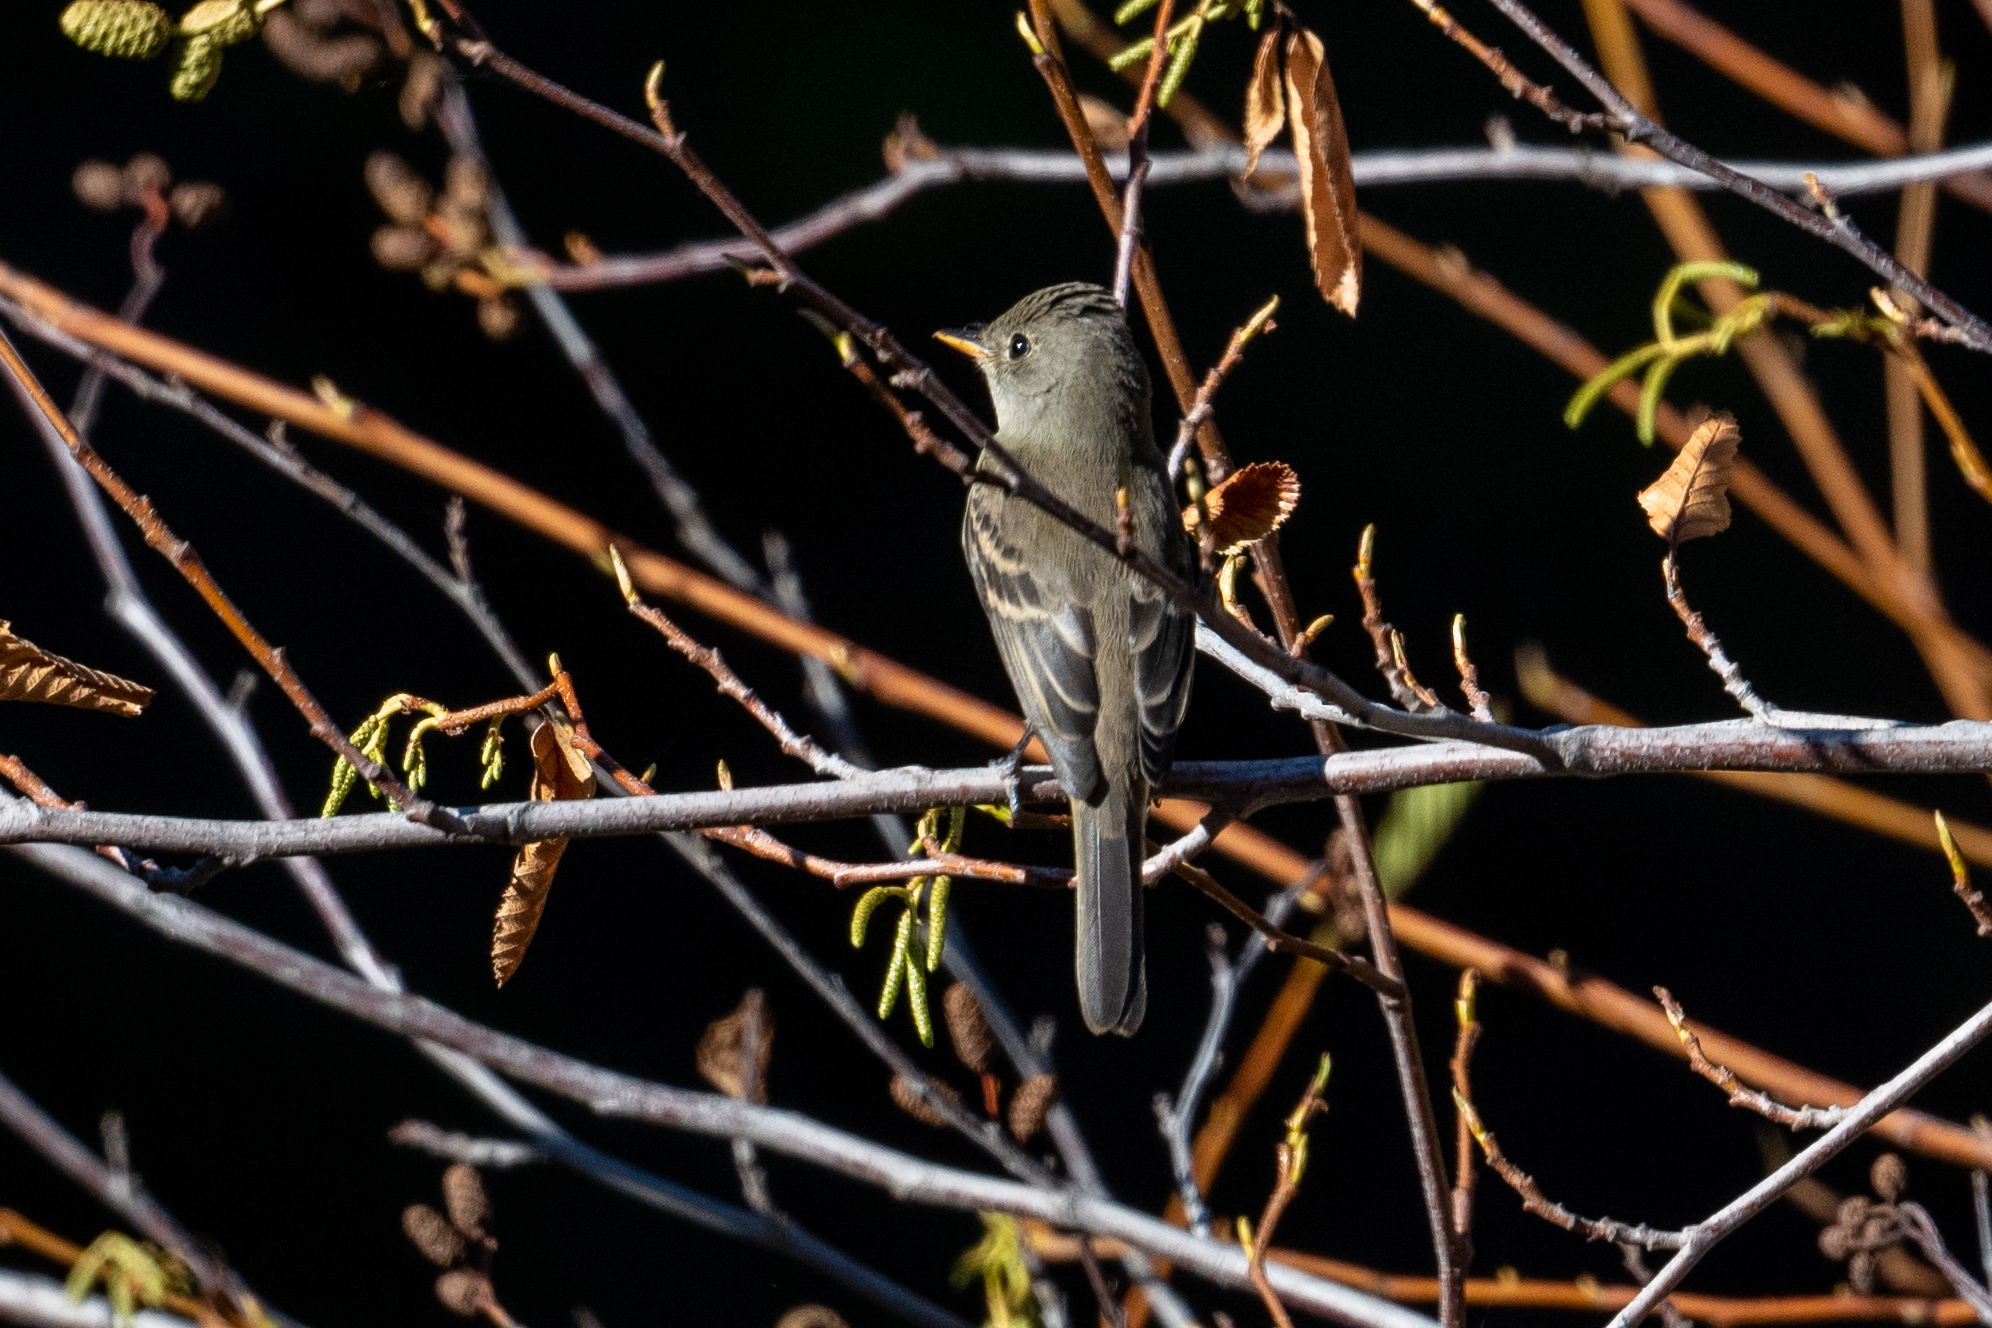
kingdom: Animalia
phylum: Chordata
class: Aves
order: Passeriformes
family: Tyrannidae
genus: Empidonax
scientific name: Empidonax traillii
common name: Willow flycatcher
